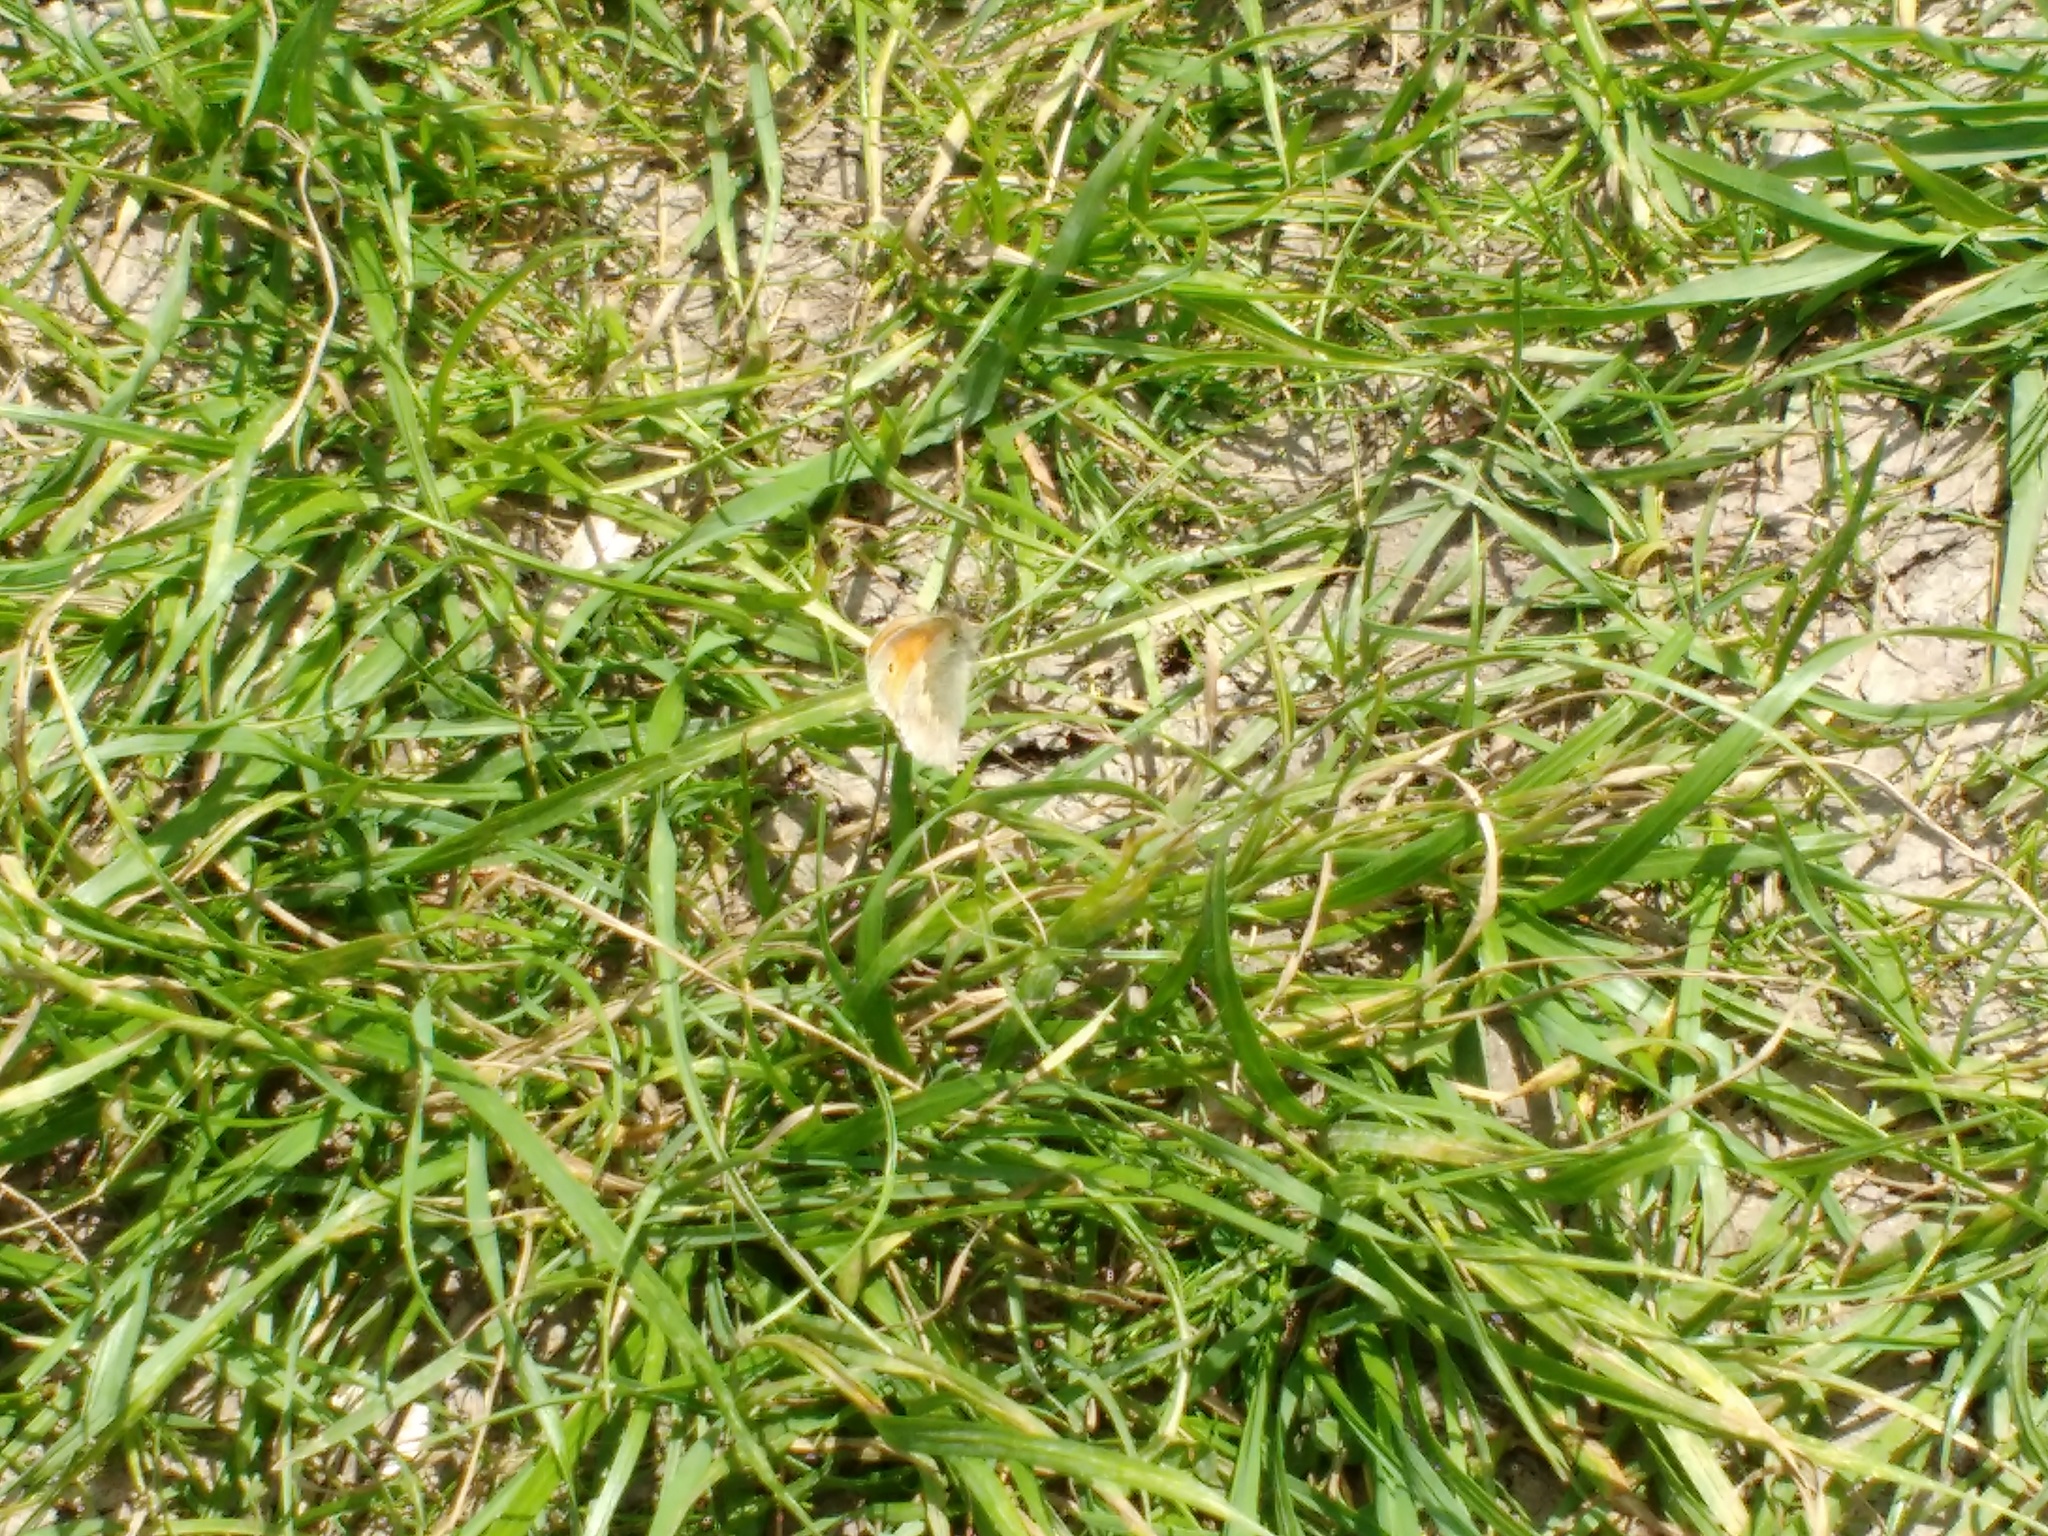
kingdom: Animalia
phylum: Arthropoda
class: Insecta
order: Lepidoptera
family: Nymphalidae
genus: Coenonympha
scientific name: Coenonympha pamphilus
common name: Small heath
